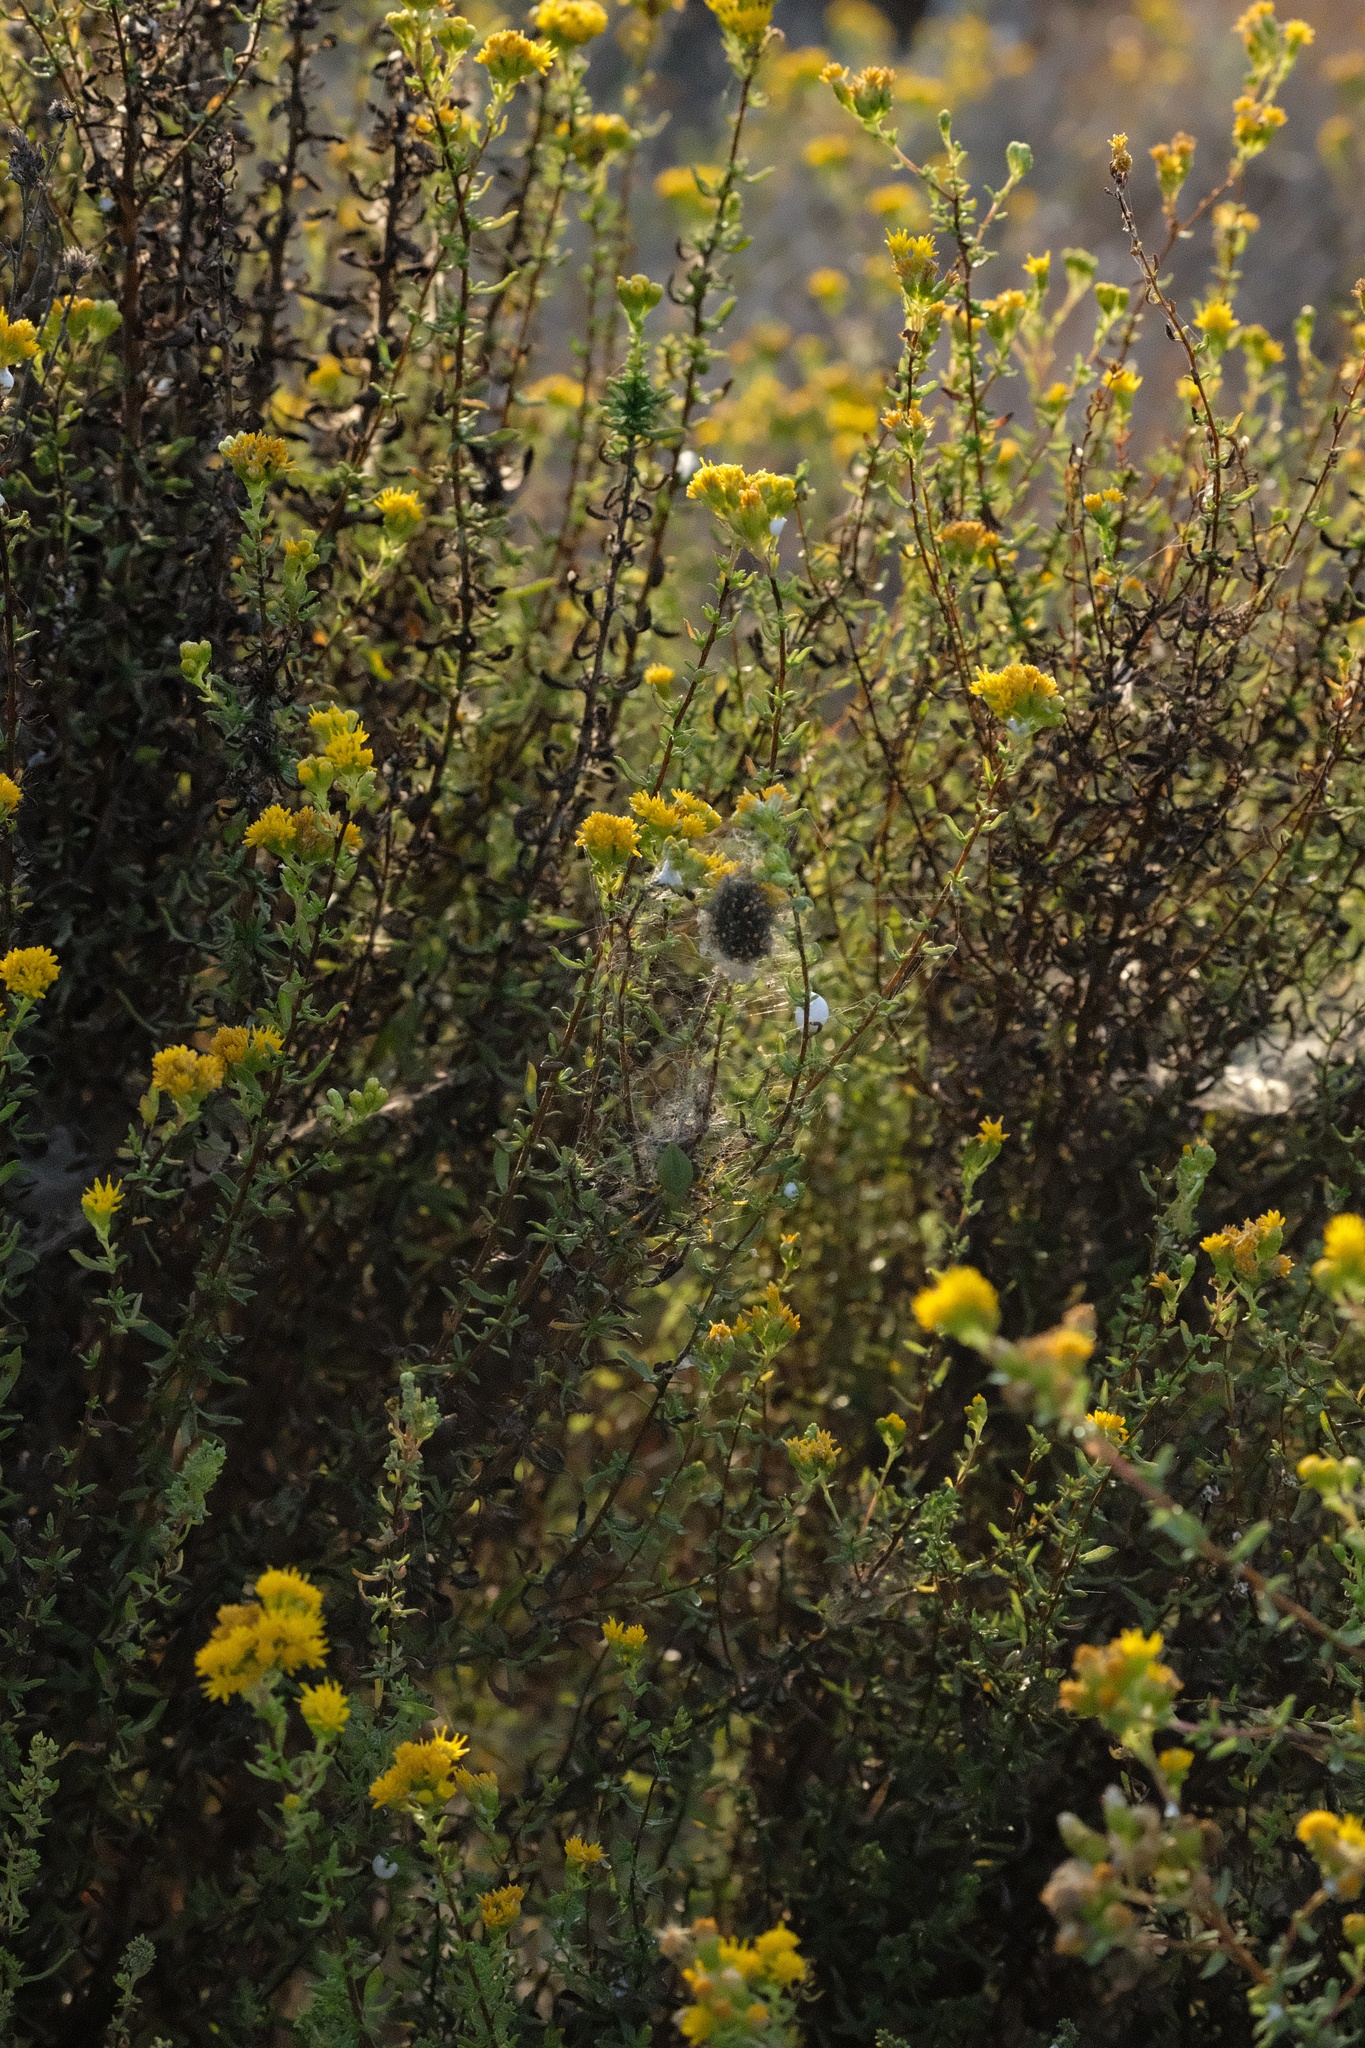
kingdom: Animalia
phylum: Arthropoda
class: Arachnida
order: Araneae
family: Oxyopidae
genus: Peucetia
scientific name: Peucetia viridans
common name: Lynx spiders
